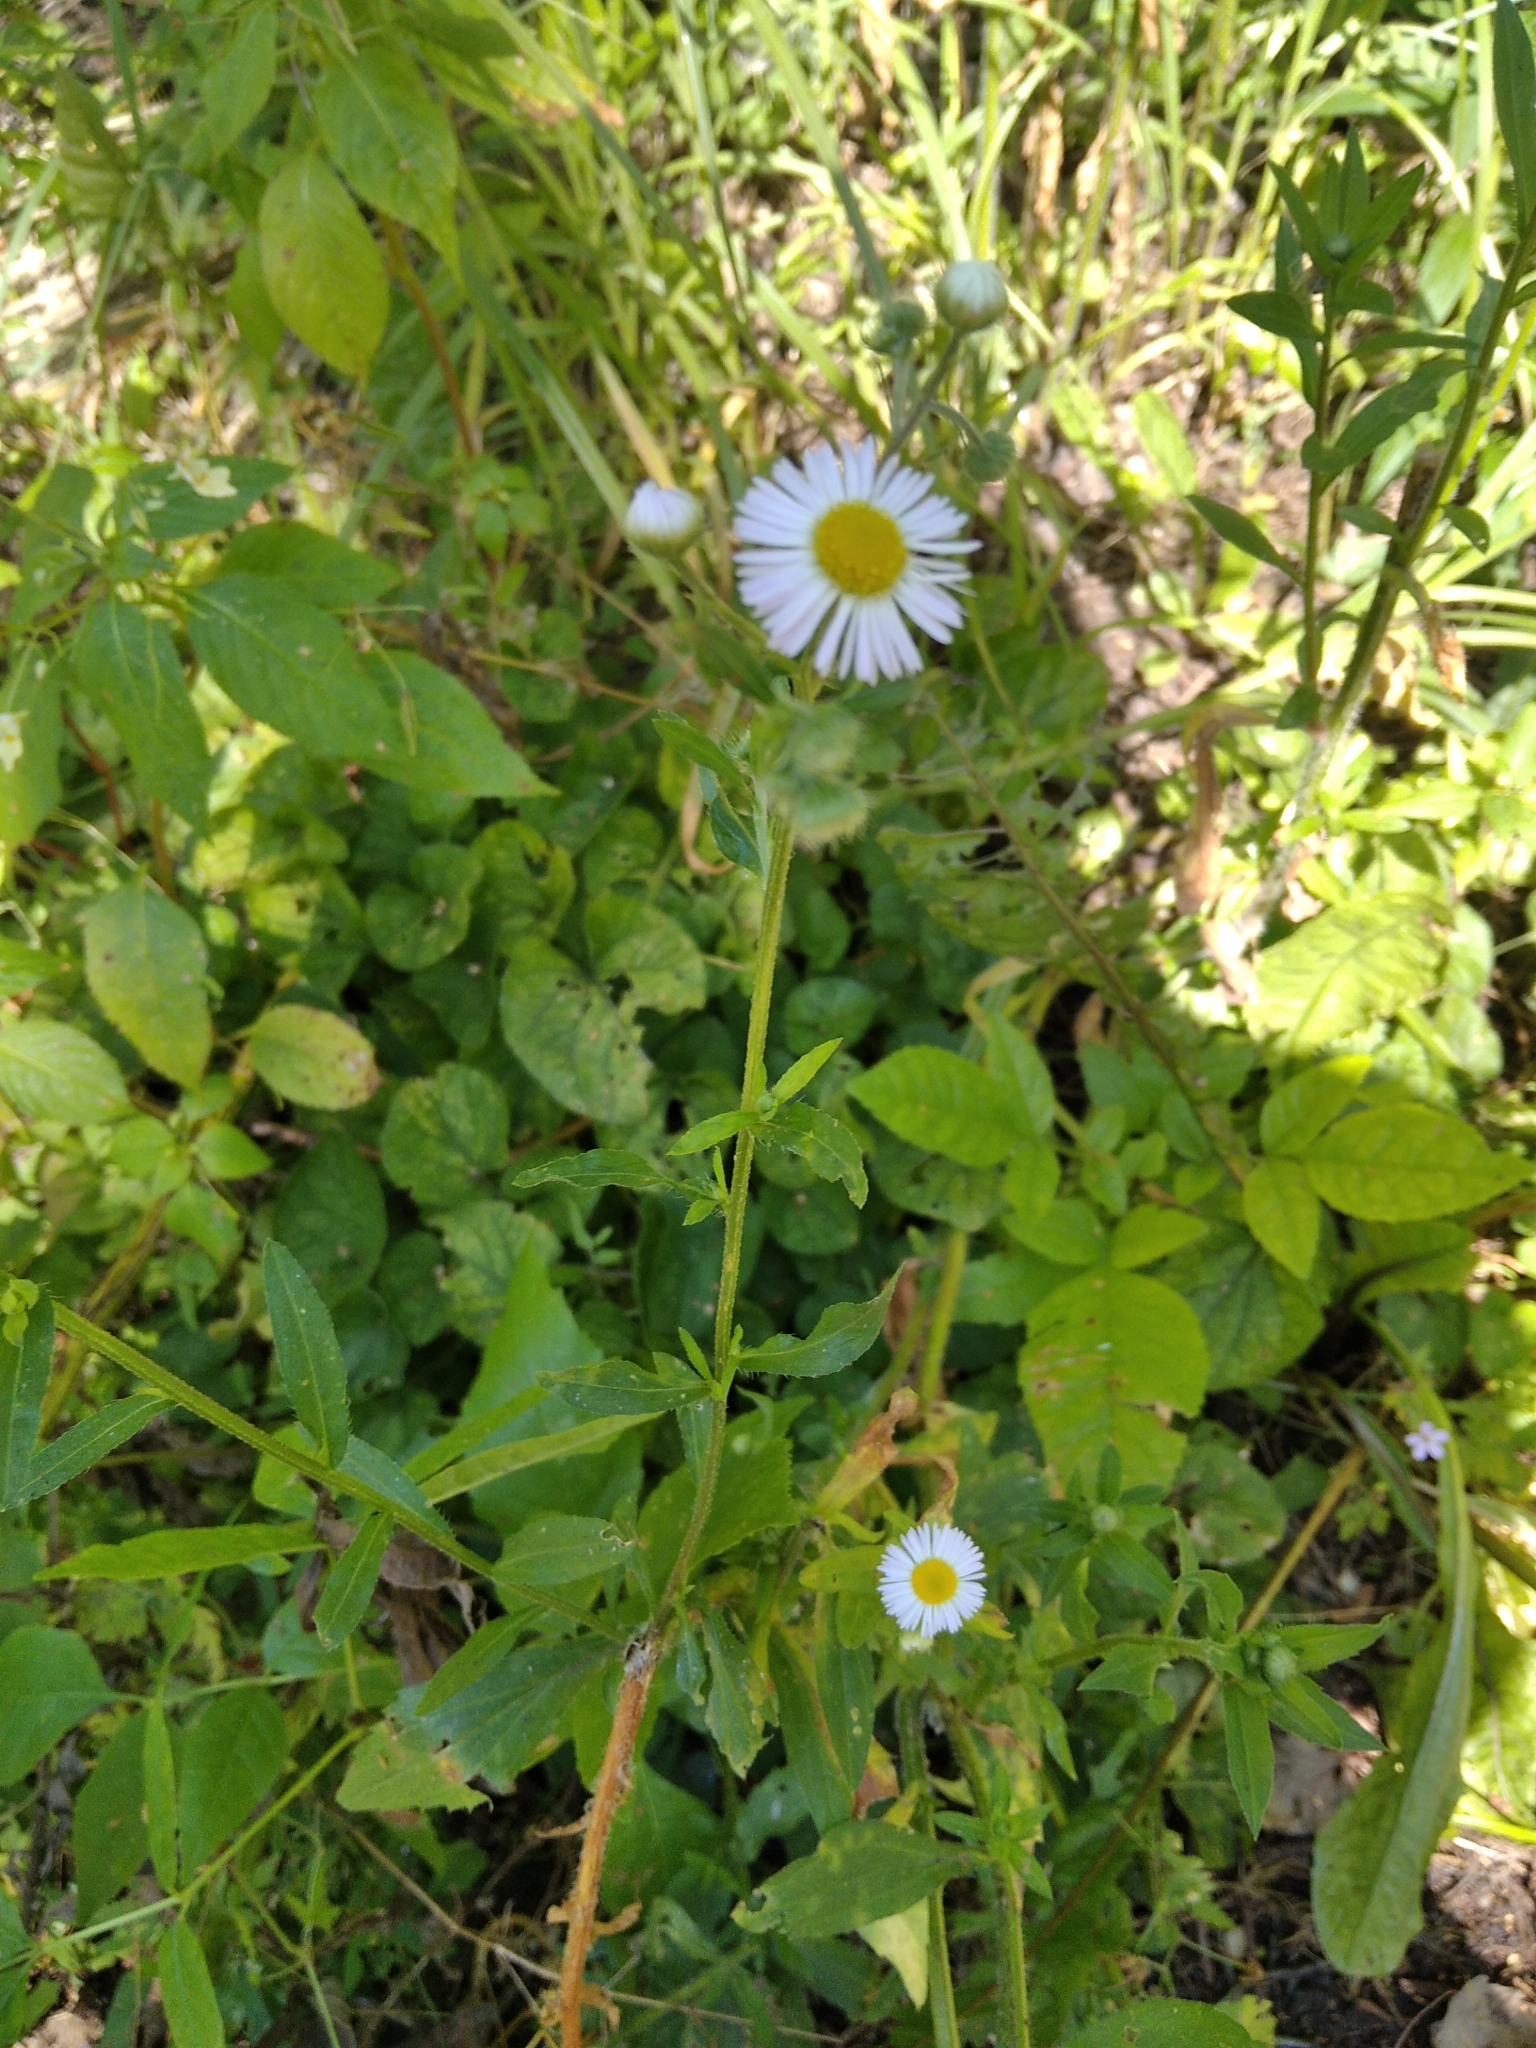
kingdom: Plantae
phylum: Tracheophyta
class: Magnoliopsida
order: Asterales
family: Asteraceae
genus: Erigeron
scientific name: Erigeron annuus
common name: Tall fleabane
